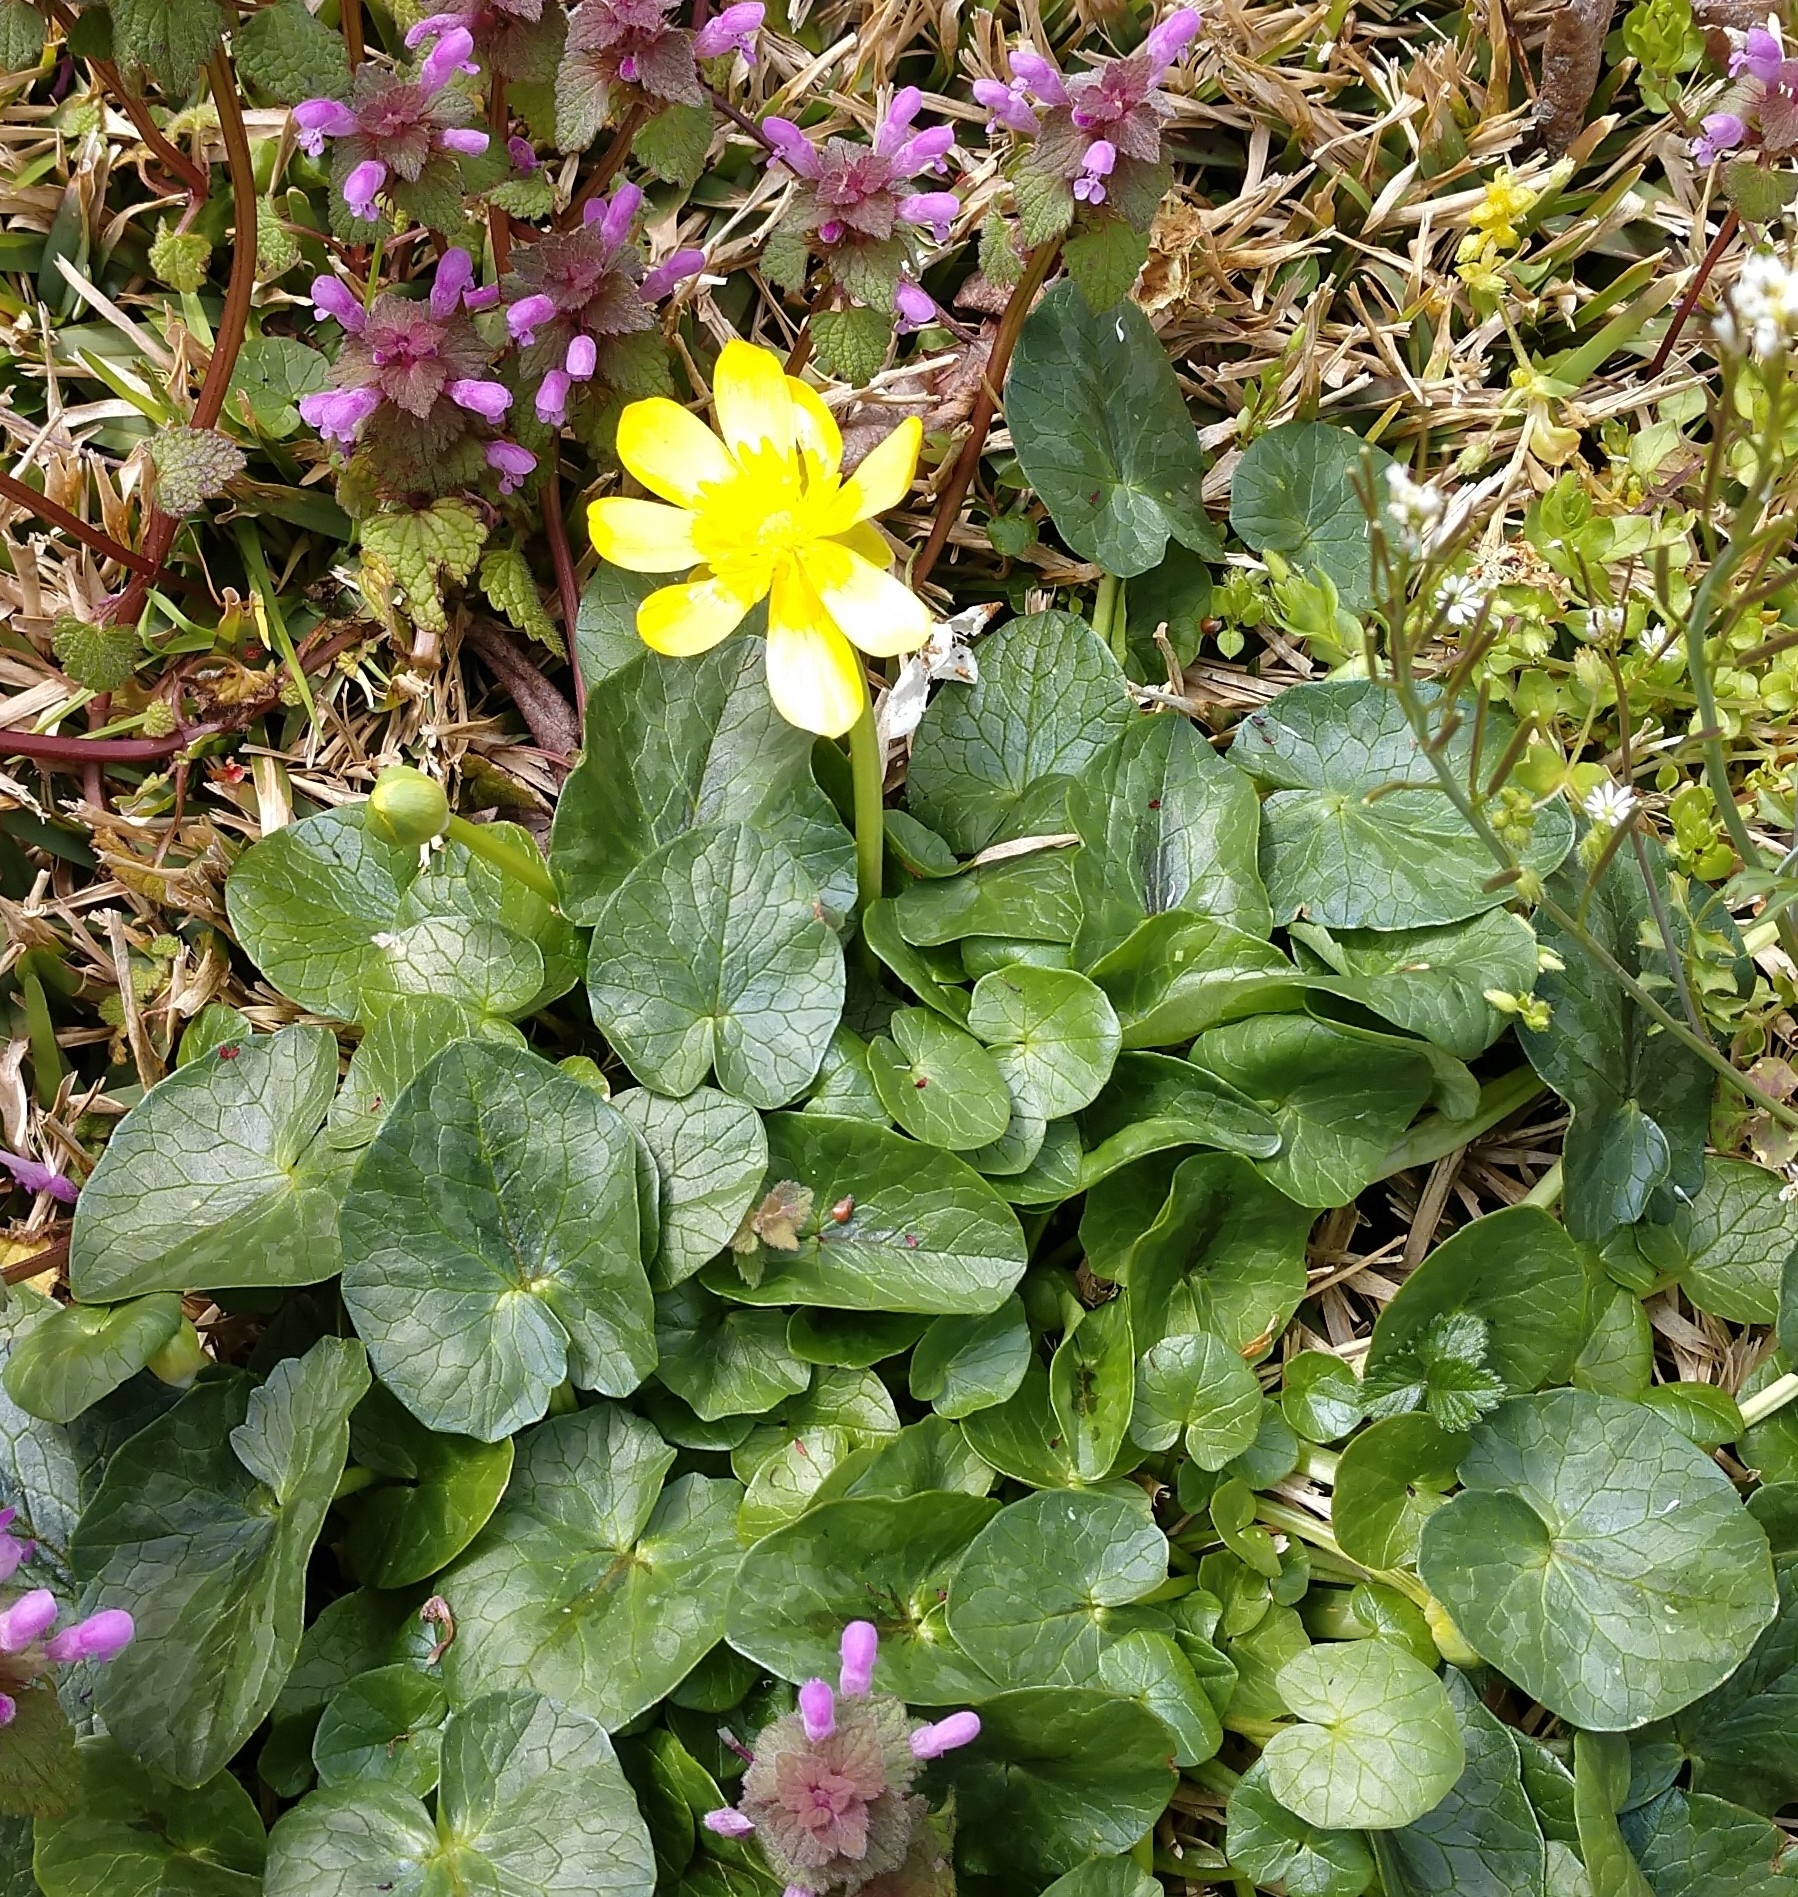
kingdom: Plantae
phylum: Tracheophyta
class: Magnoliopsida
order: Ranunculales
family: Ranunculaceae
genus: Ficaria
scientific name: Ficaria verna
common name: Lesser celandine
